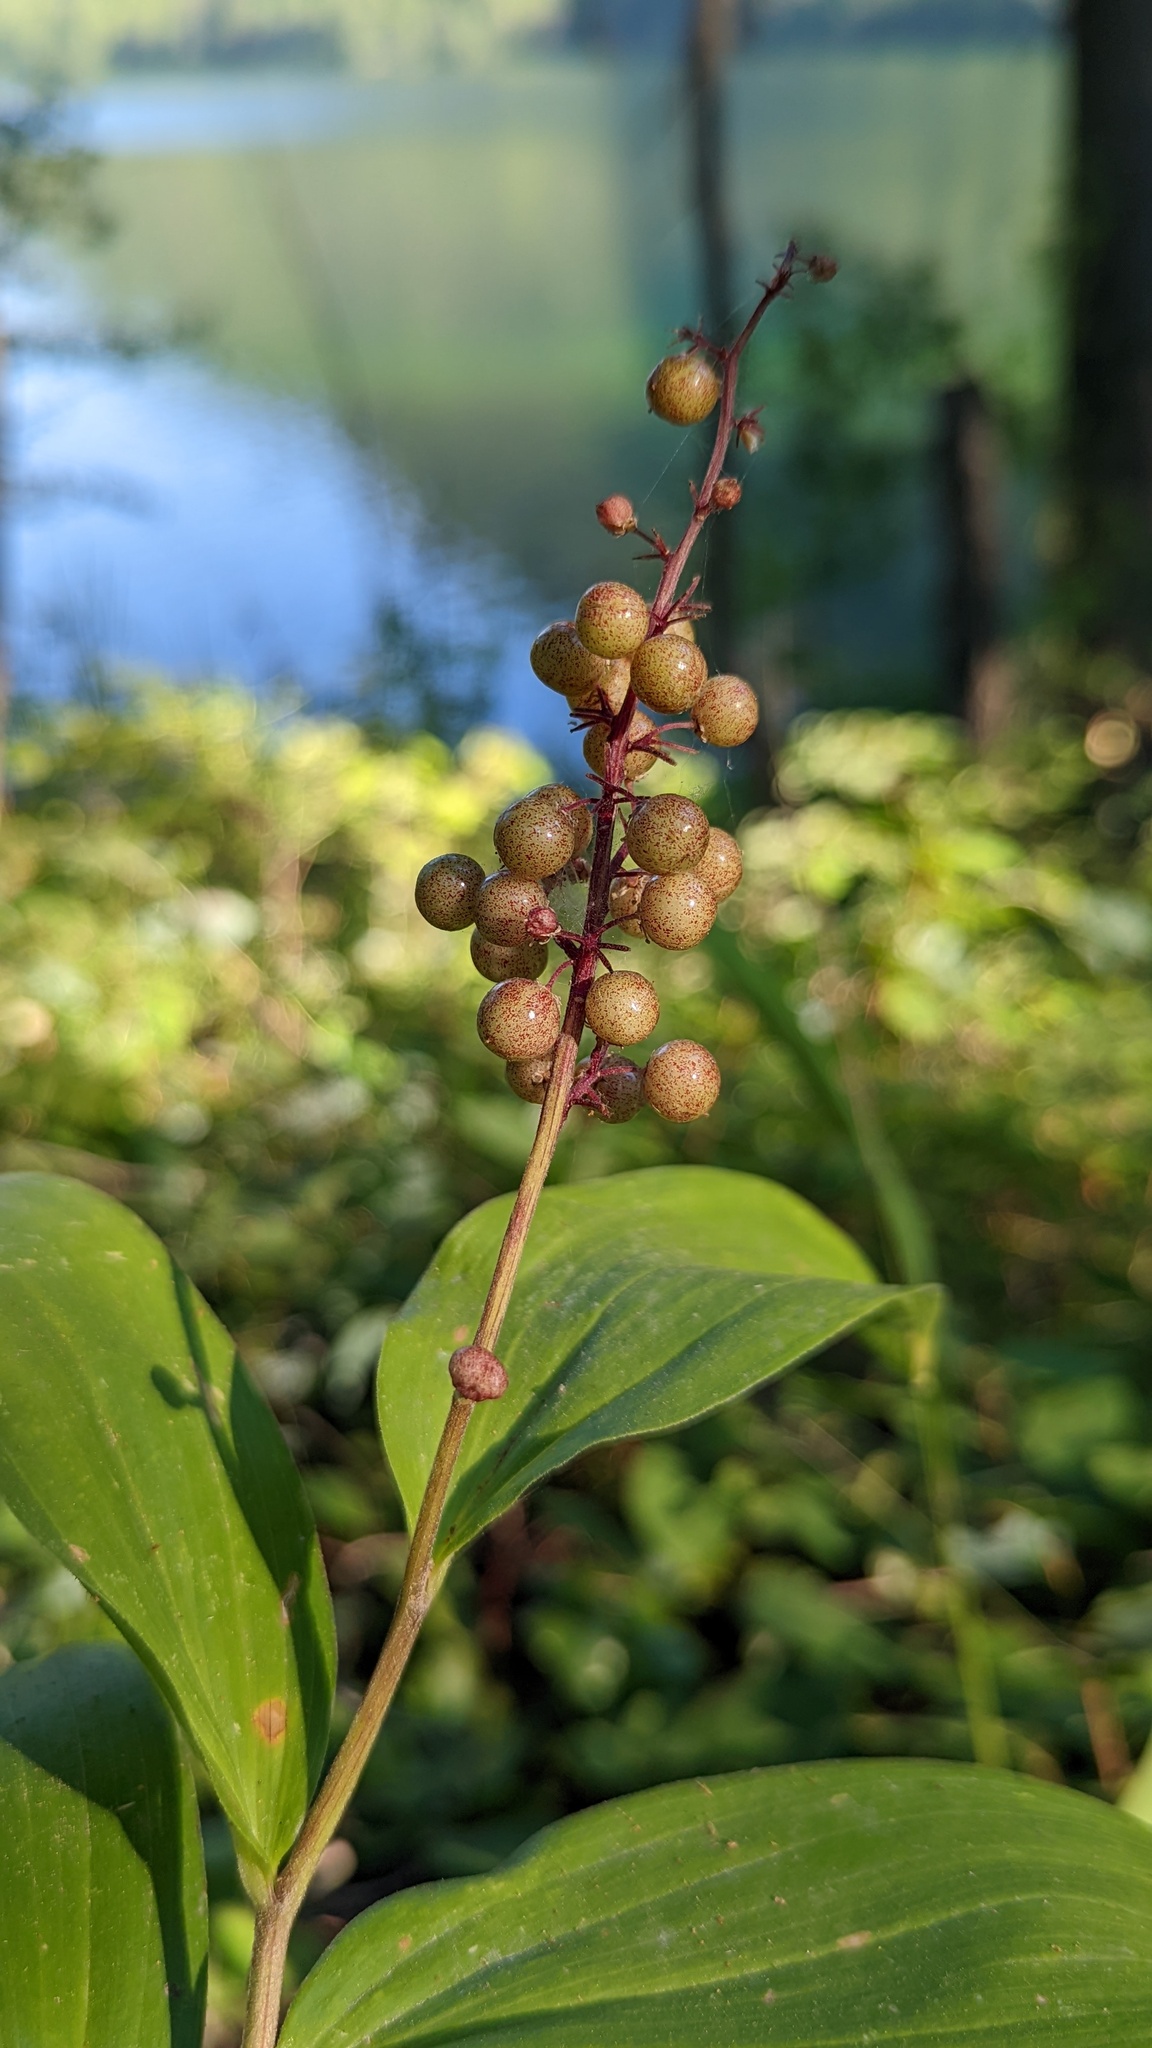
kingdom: Plantae
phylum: Tracheophyta
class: Liliopsida
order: Asparagales
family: Asparagaceae
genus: Maianthemum
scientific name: Maianthemum racemosum
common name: False spikenard
